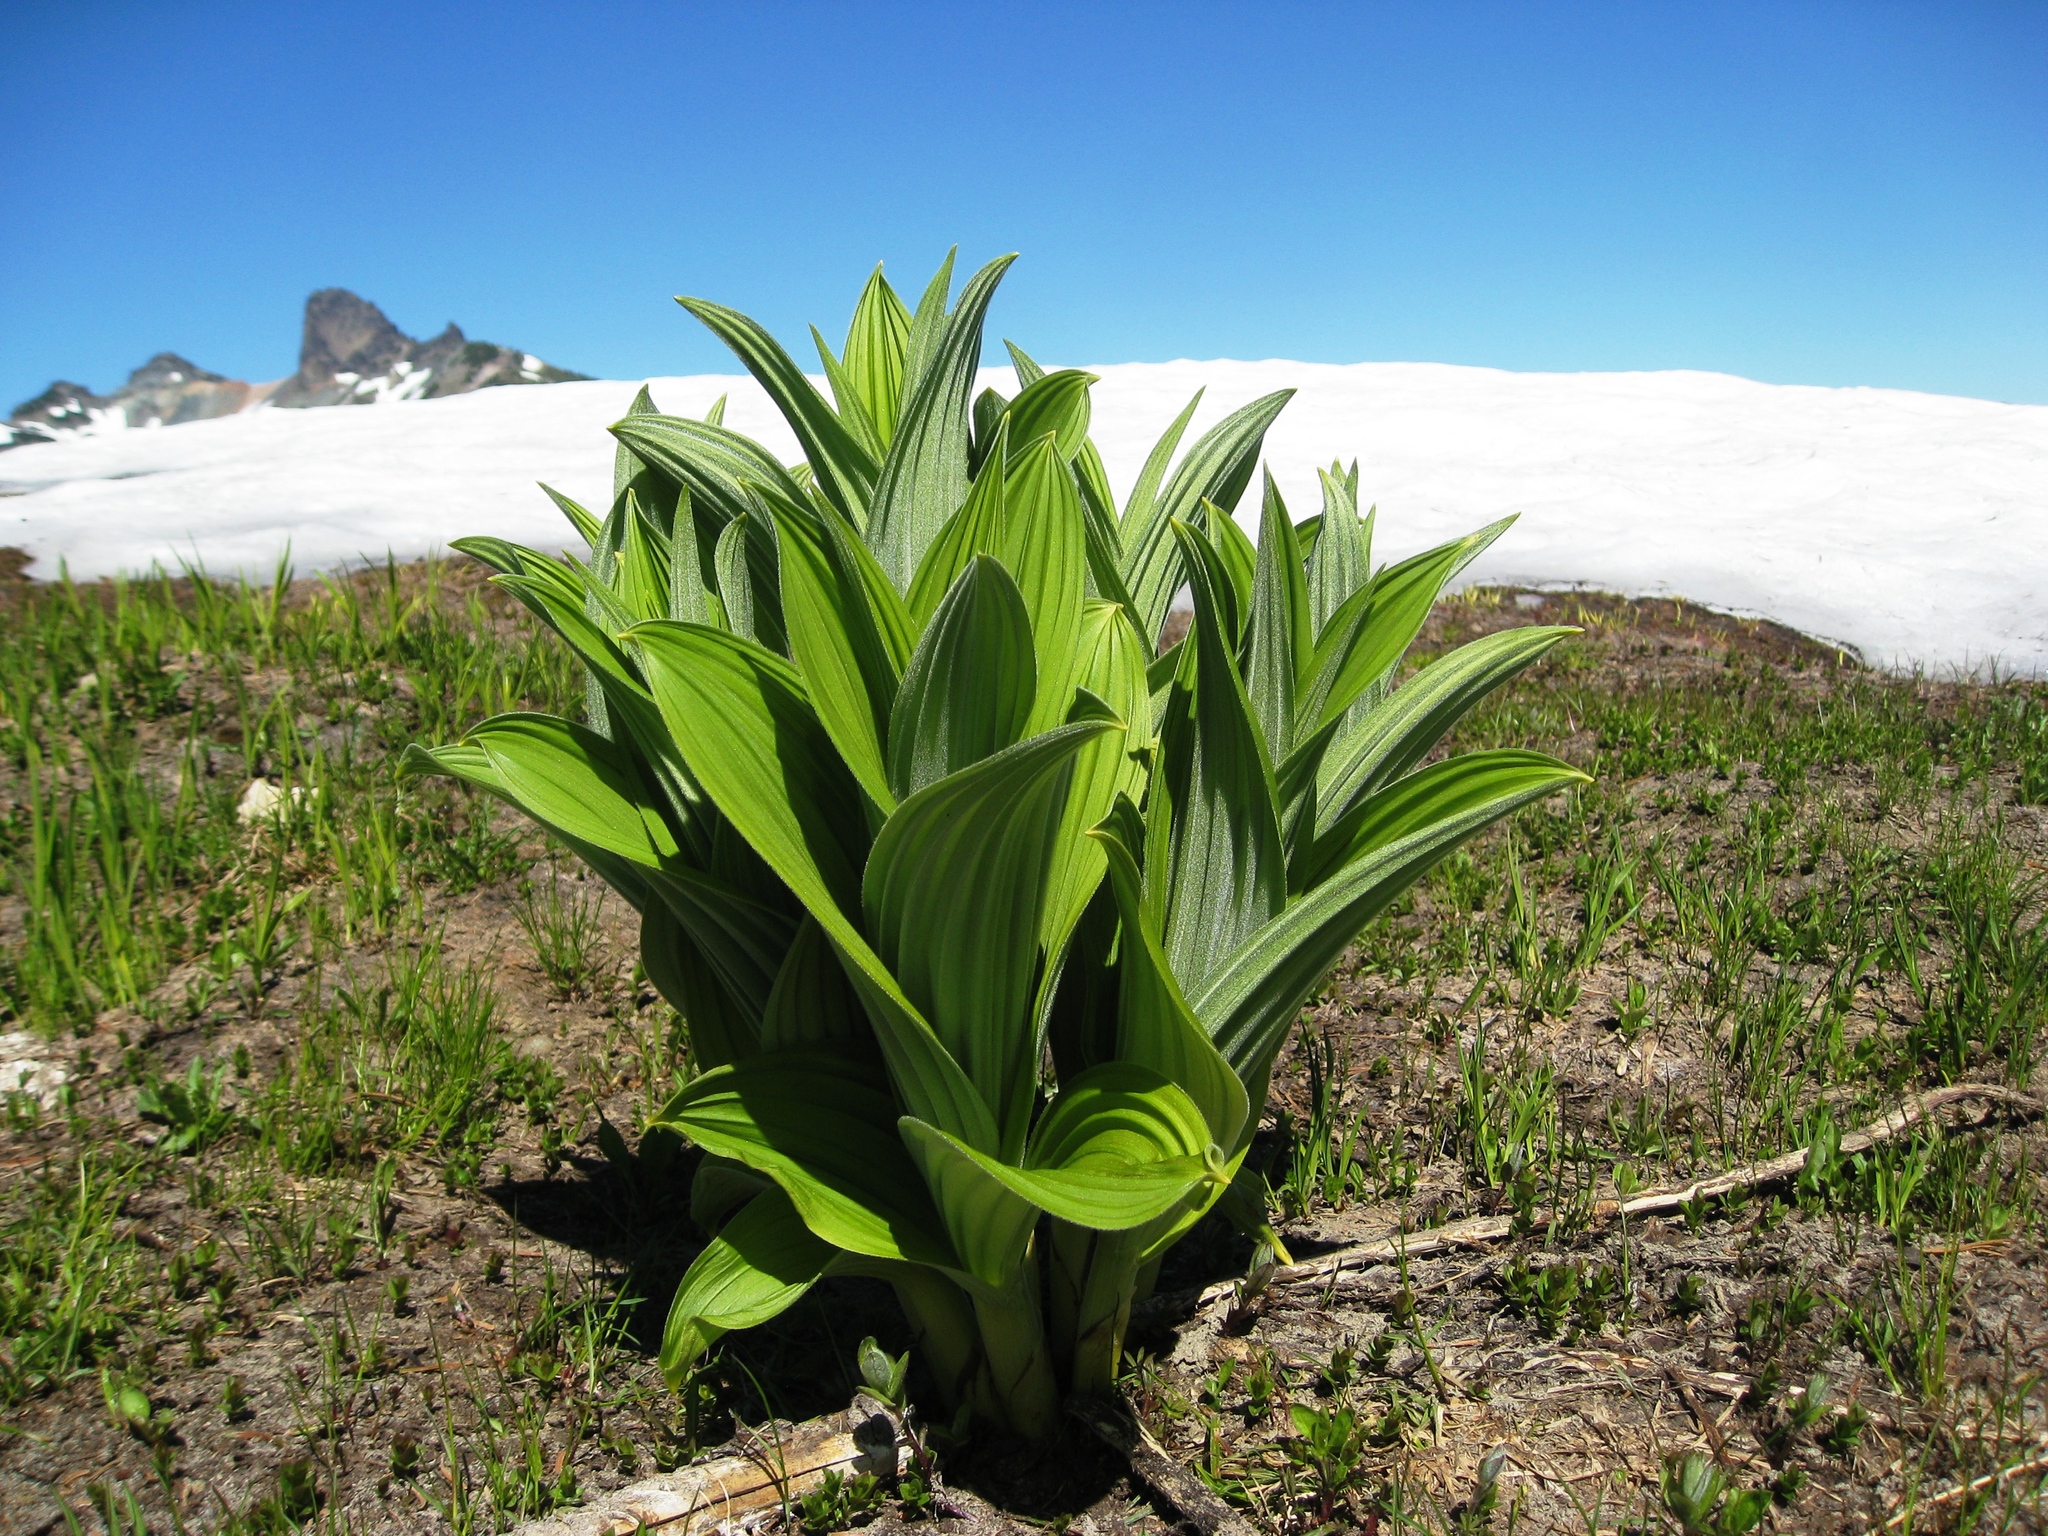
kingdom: Plantae
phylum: Tracheophyta
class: Liliopsida
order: Liliales
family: Melanthiaceae
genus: Veratrum
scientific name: Veratrum viride
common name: American false hellebore
